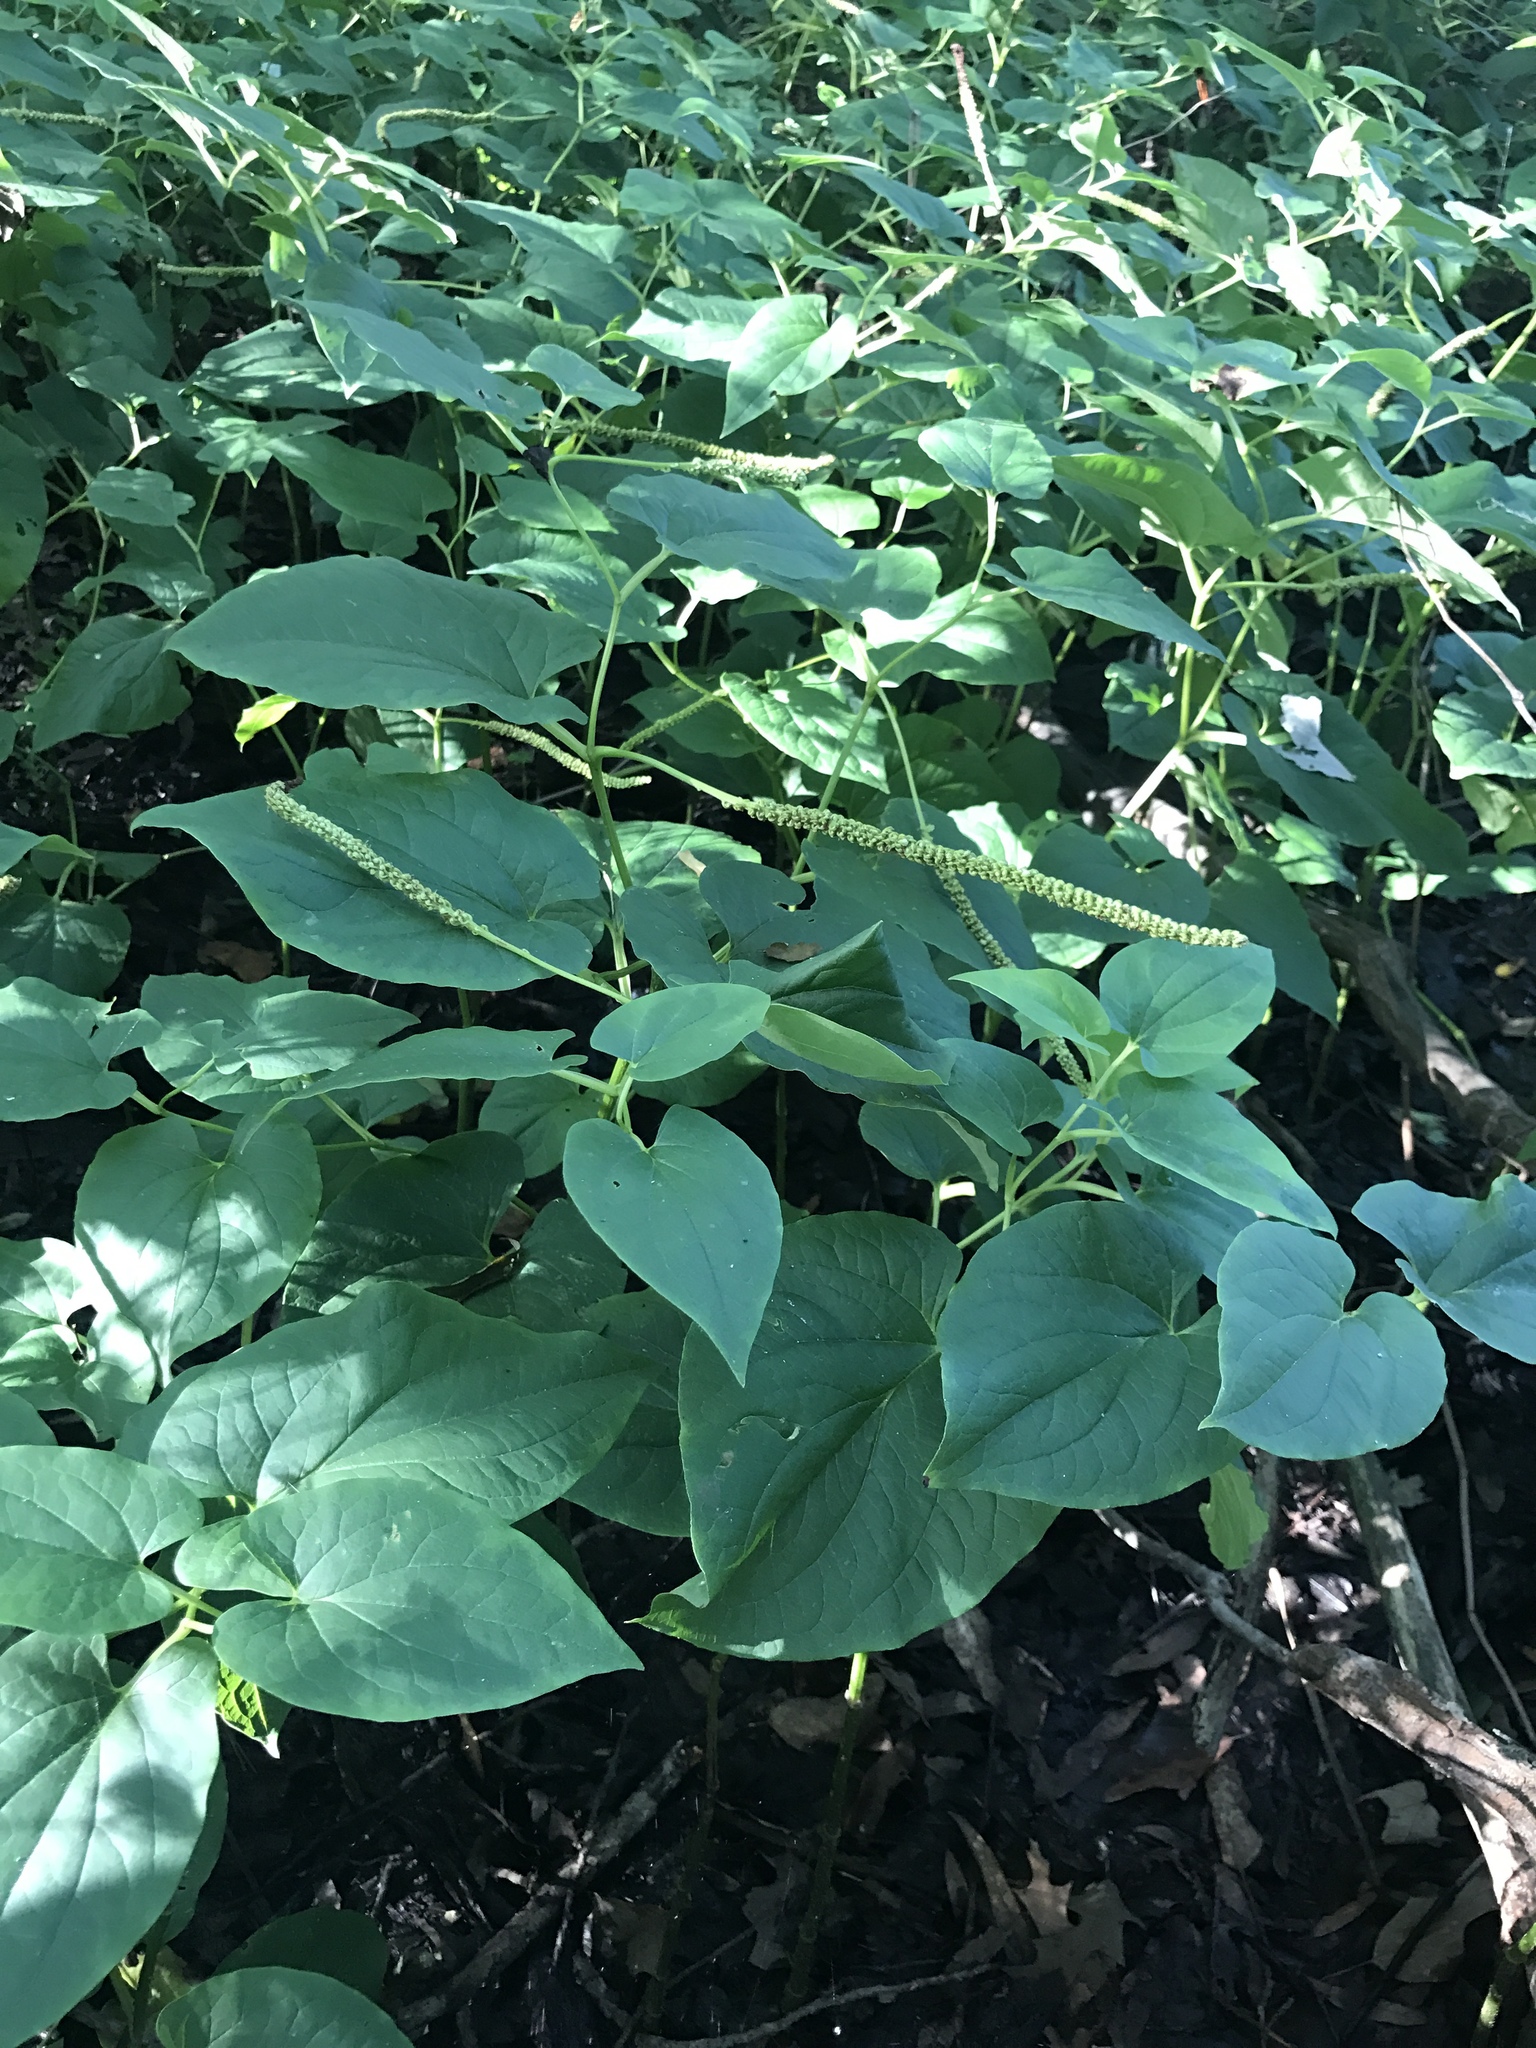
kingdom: Plantae
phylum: Tracheophyta
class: Magnoliopsida
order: Piperales
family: Saururaceae
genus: Saururus
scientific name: Saururus cernuus
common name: Lizard's-tail
